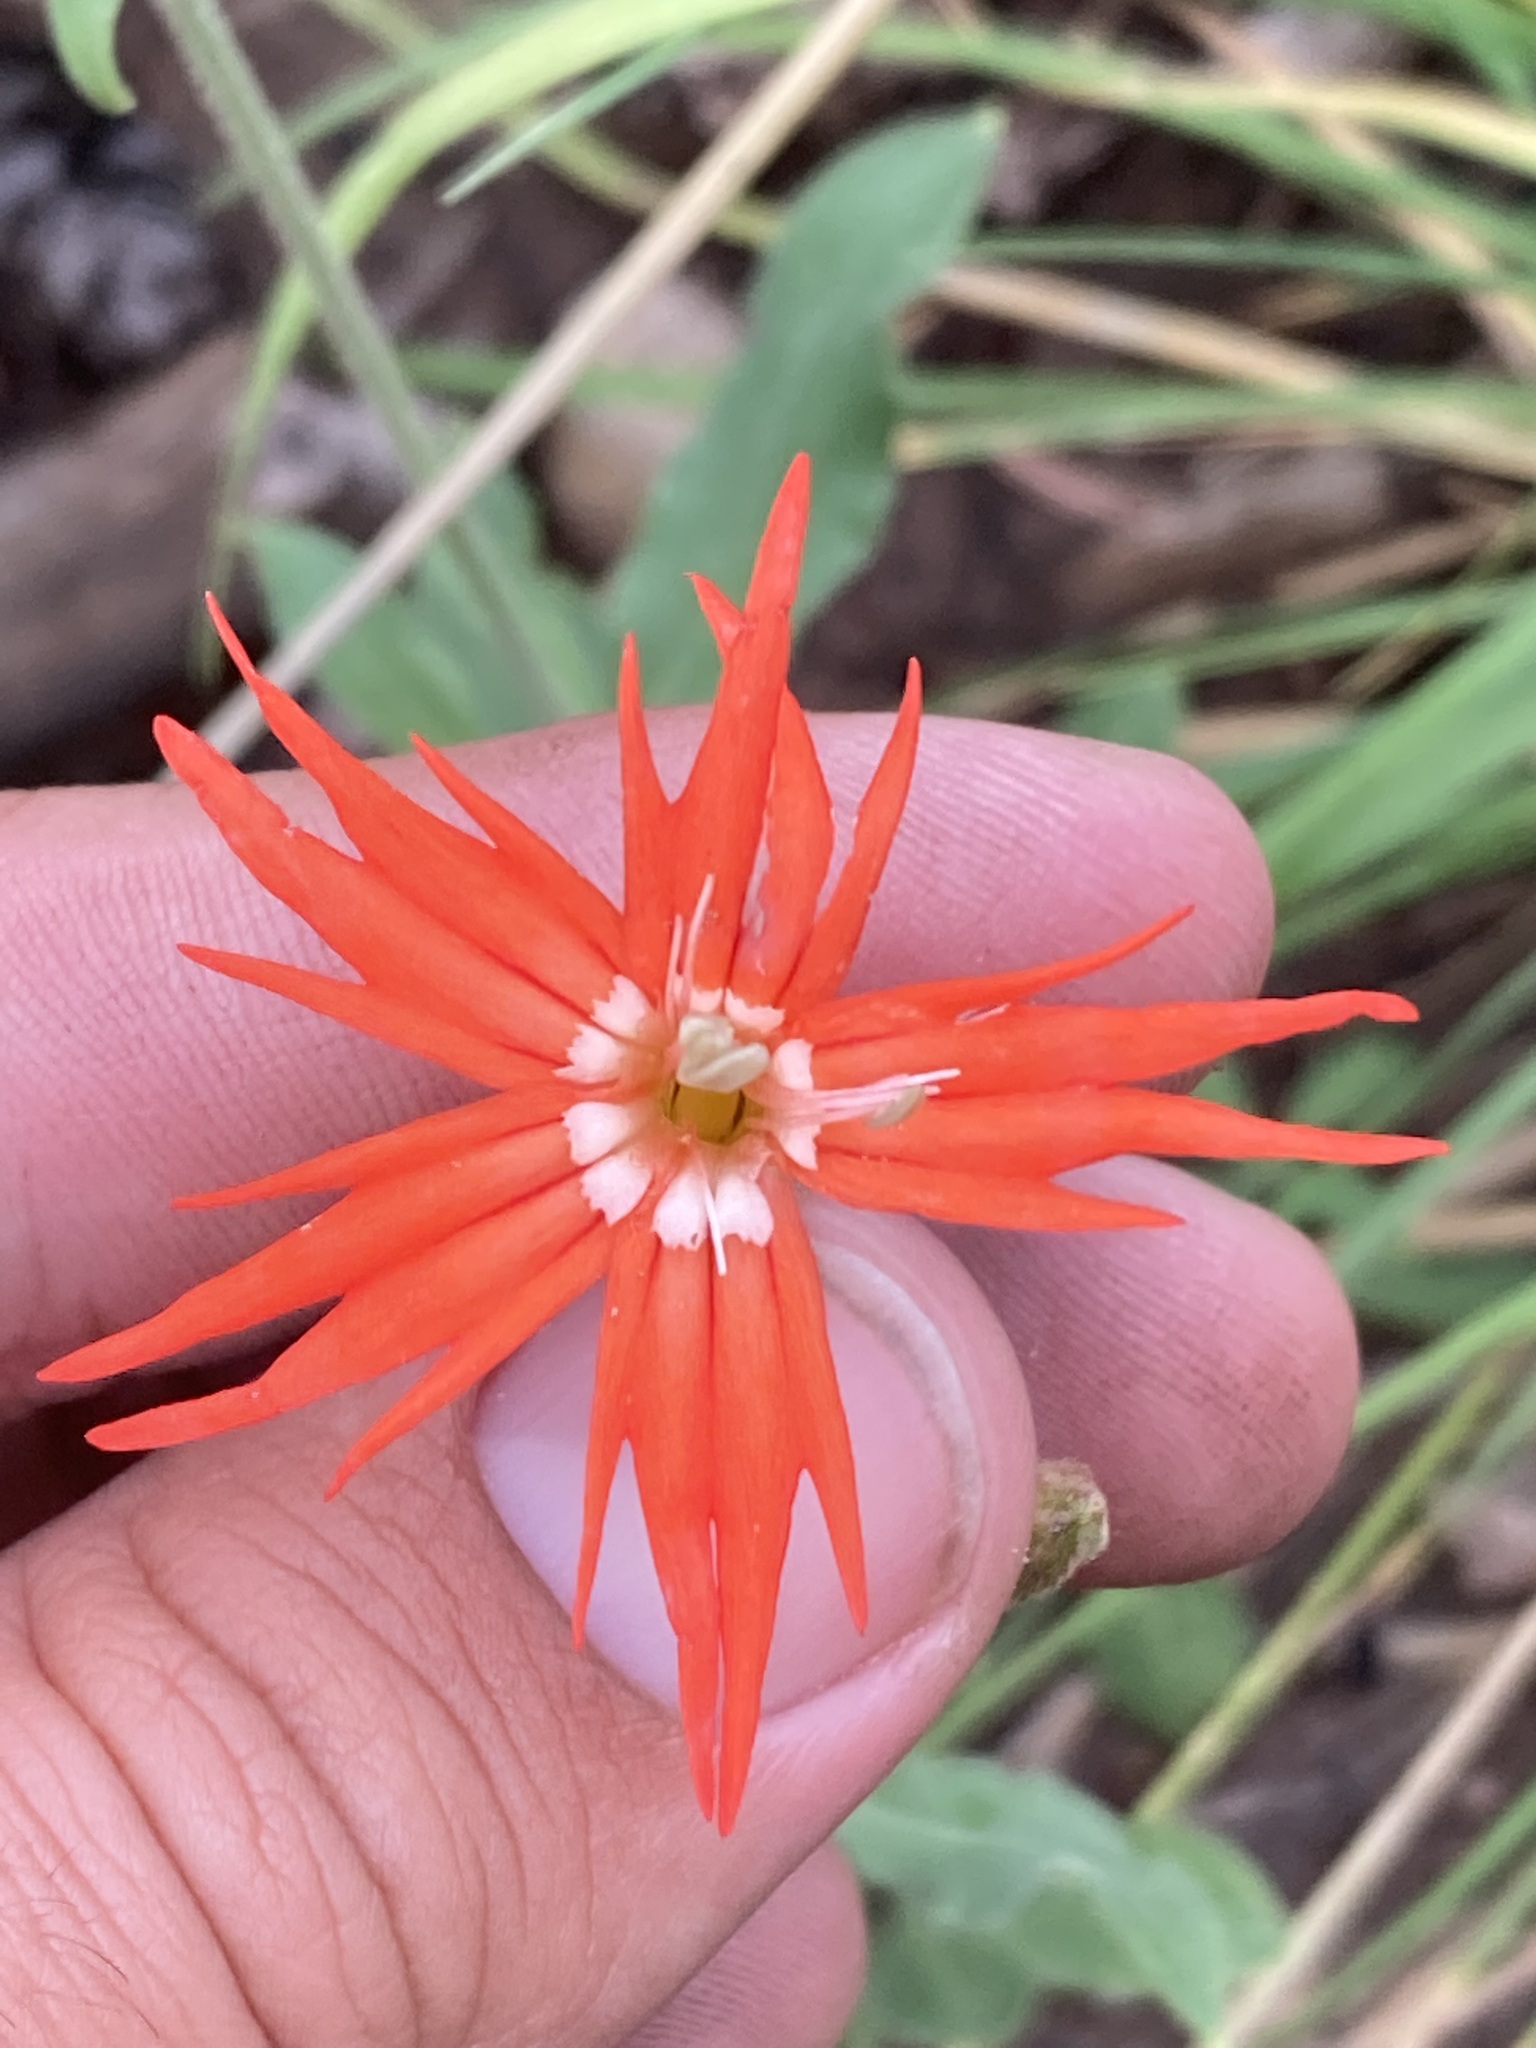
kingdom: Plantae
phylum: Tracheophyta
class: Magnoliopsida
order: Caryophyllales
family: Caryophyllaceae
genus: Silene
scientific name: Silene laciniata
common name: Indian-pink
